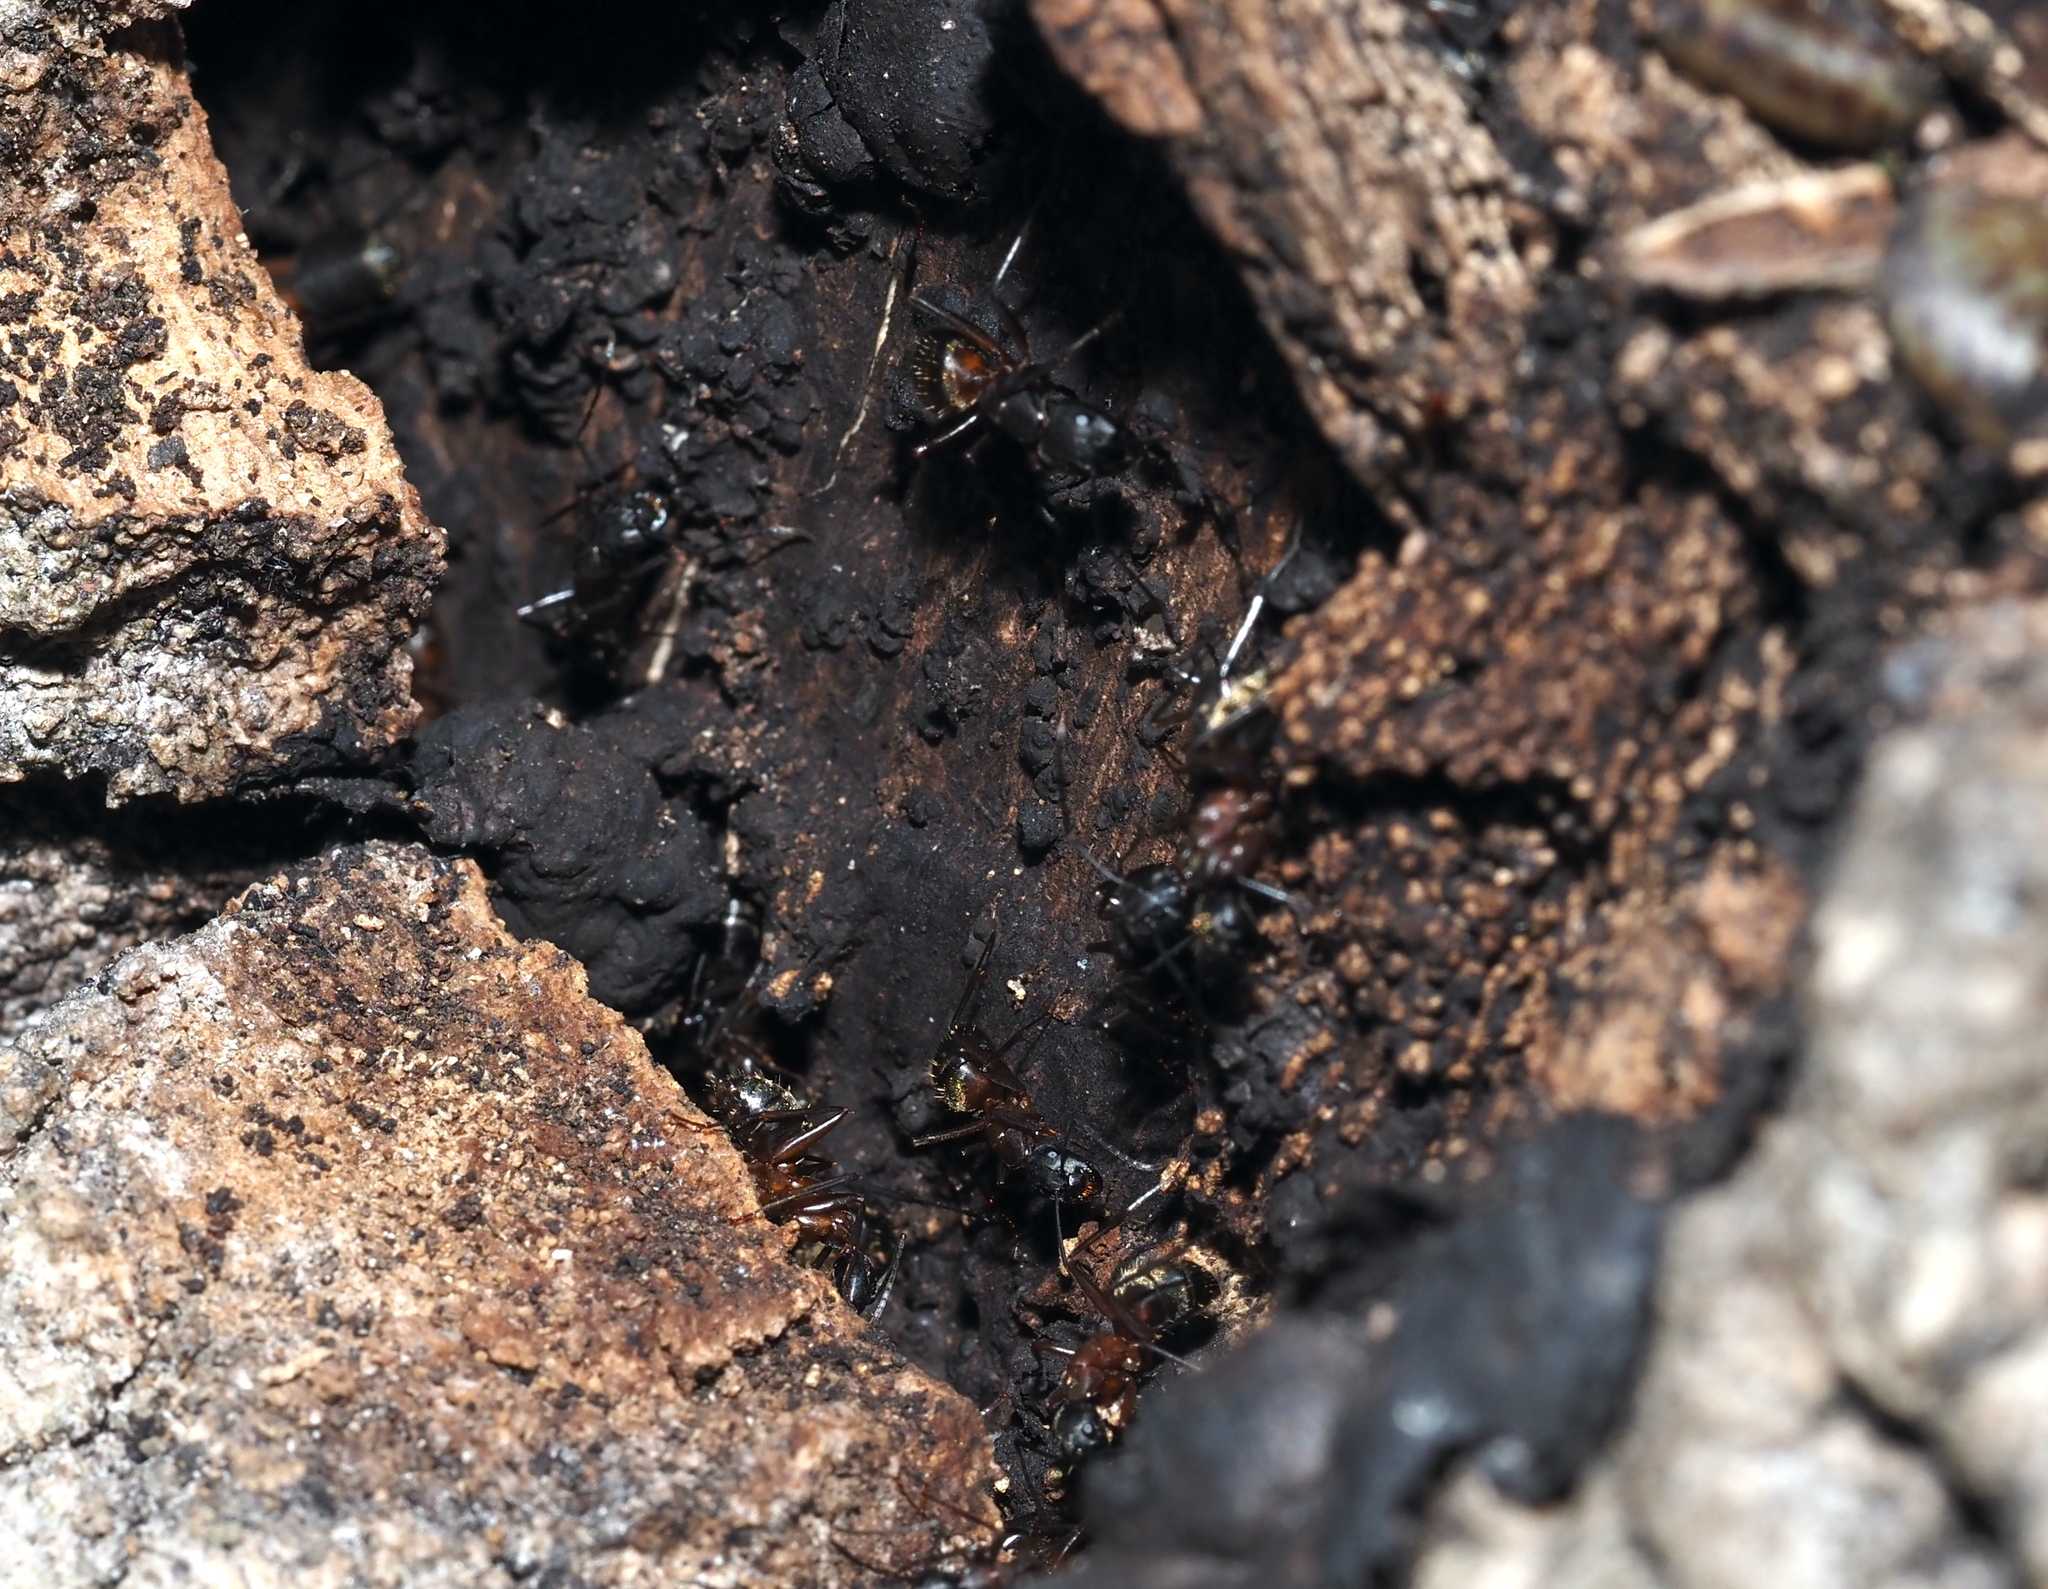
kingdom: Animalia
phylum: Arthropoda
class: Insecta
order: Hymenoptera
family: Formicidae
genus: Camponotus
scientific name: Camponotus chromaiodes
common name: Red carpenter ant
